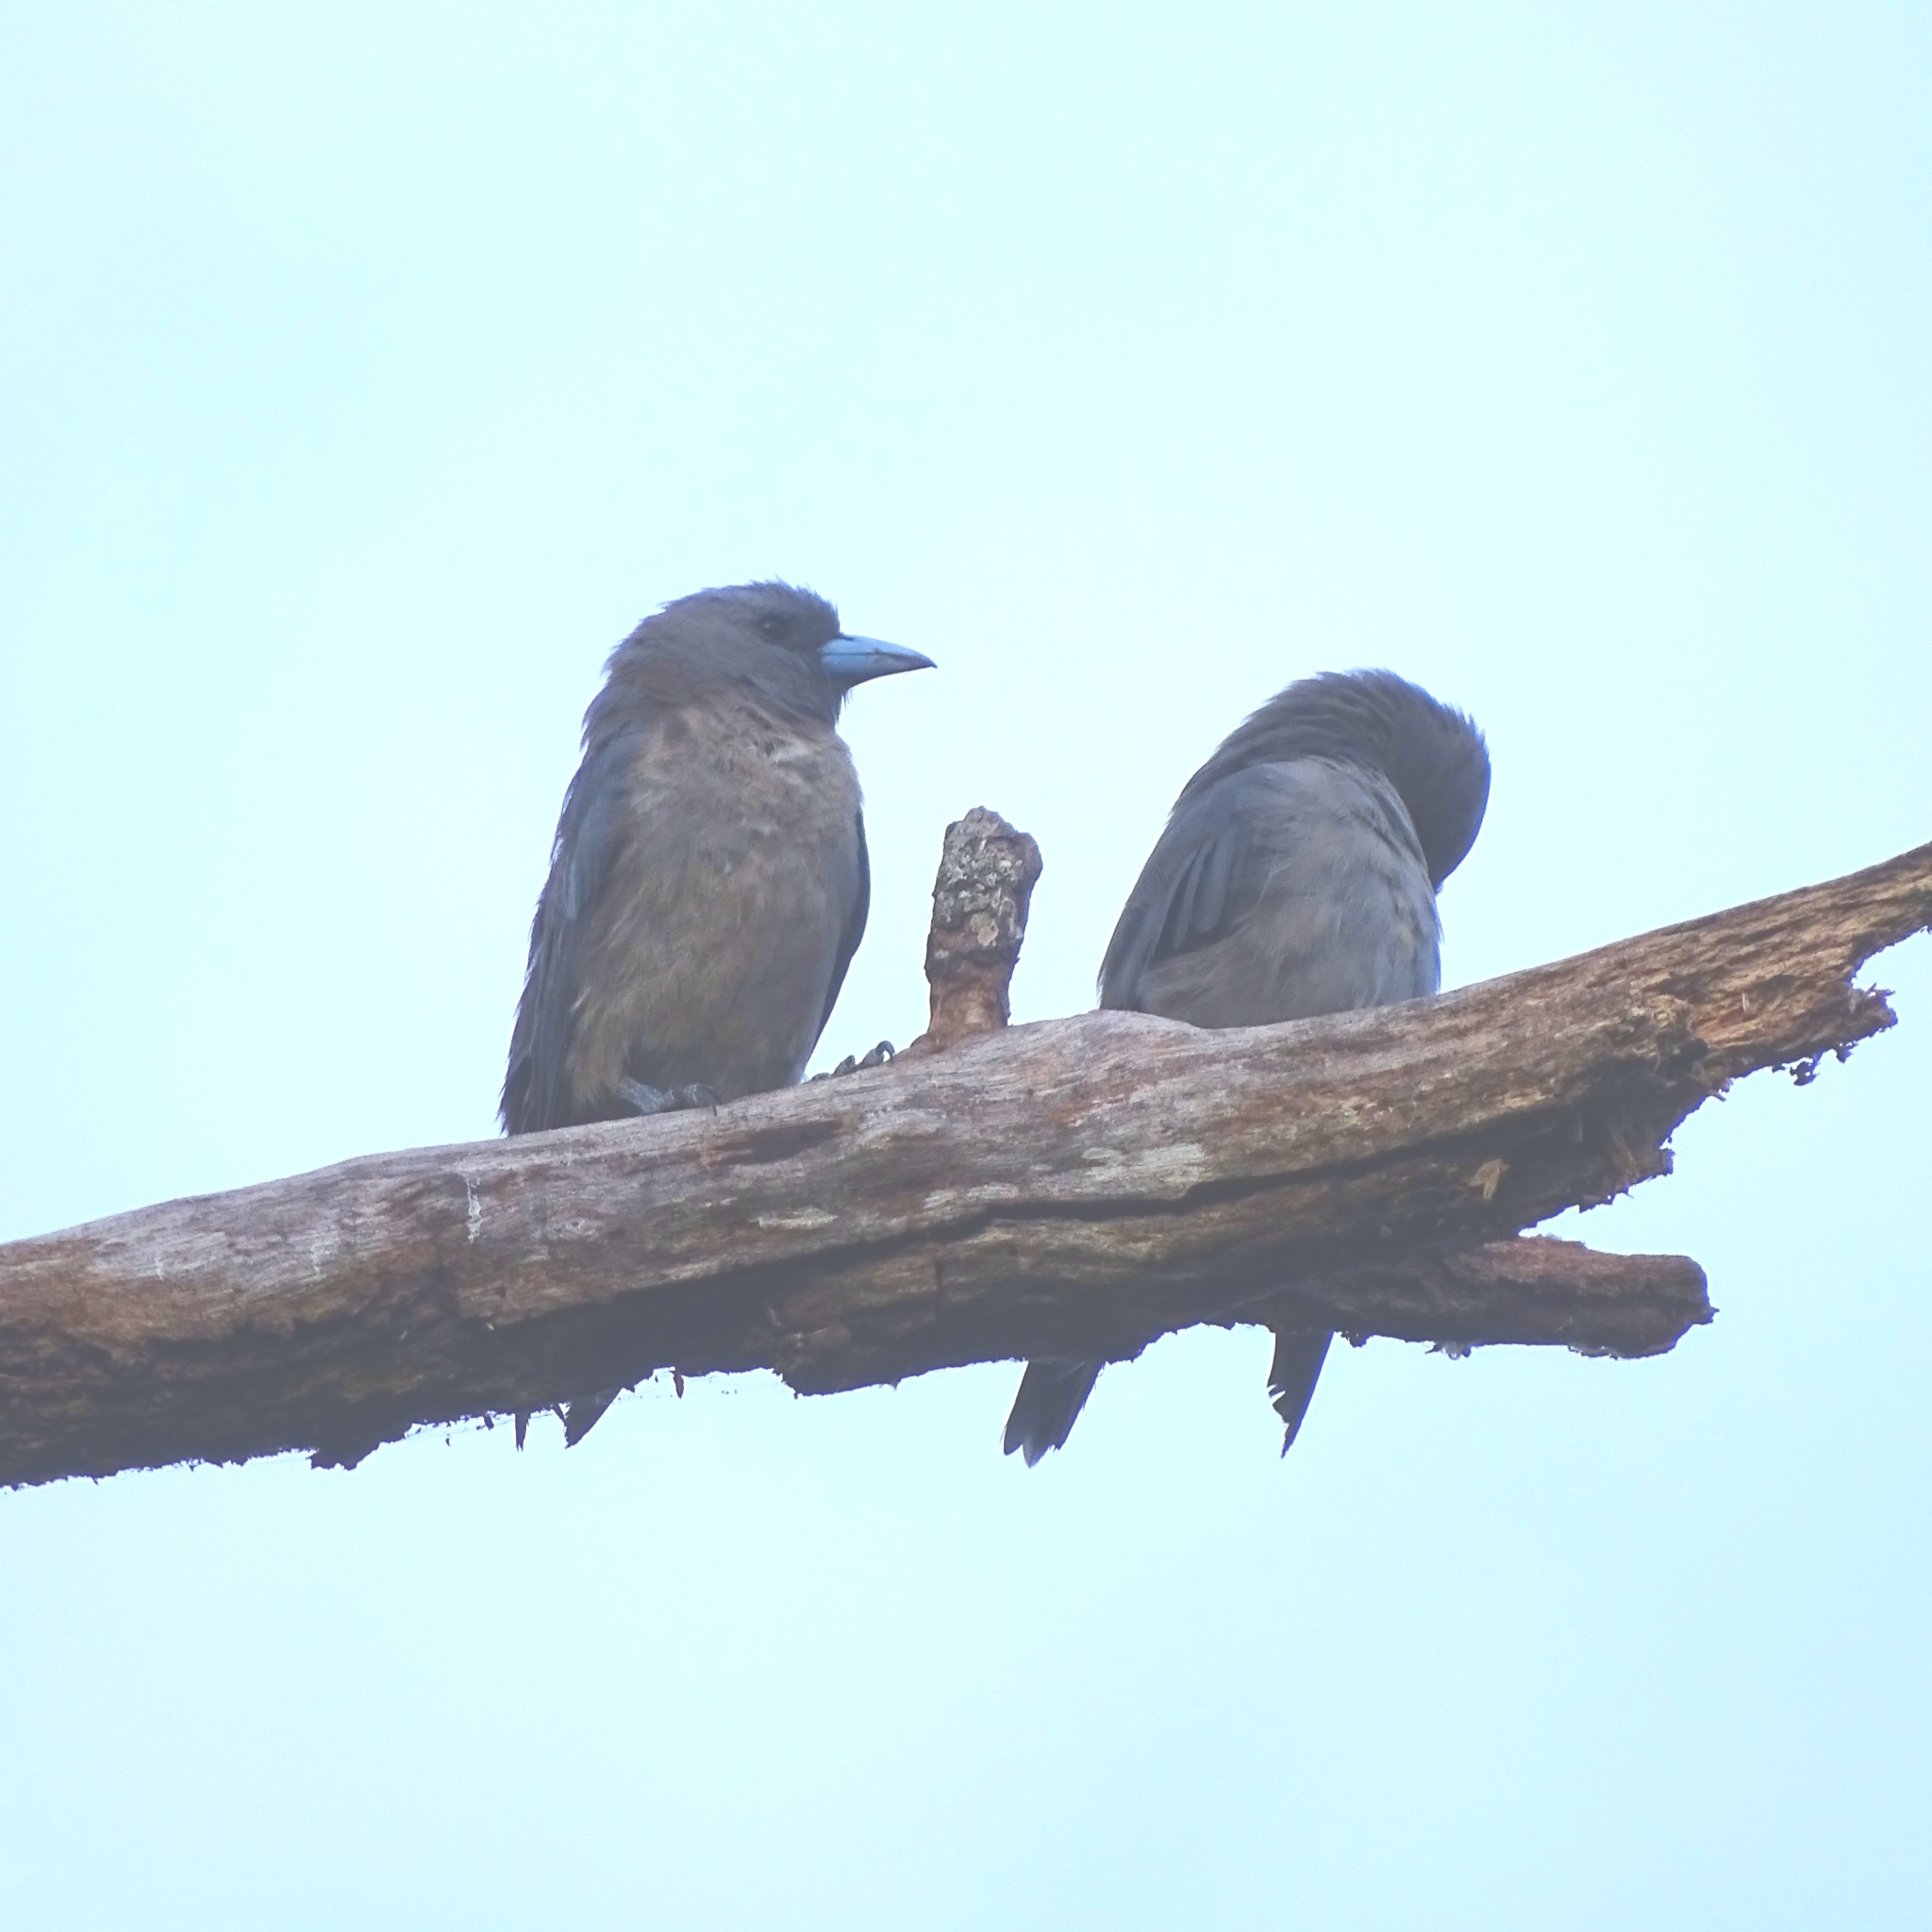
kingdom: Animalia
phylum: Chordata
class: Aves
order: Passeriformes
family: Artamidae
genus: Artamus
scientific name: Artamus fuscus
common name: Ashy woodswallow
